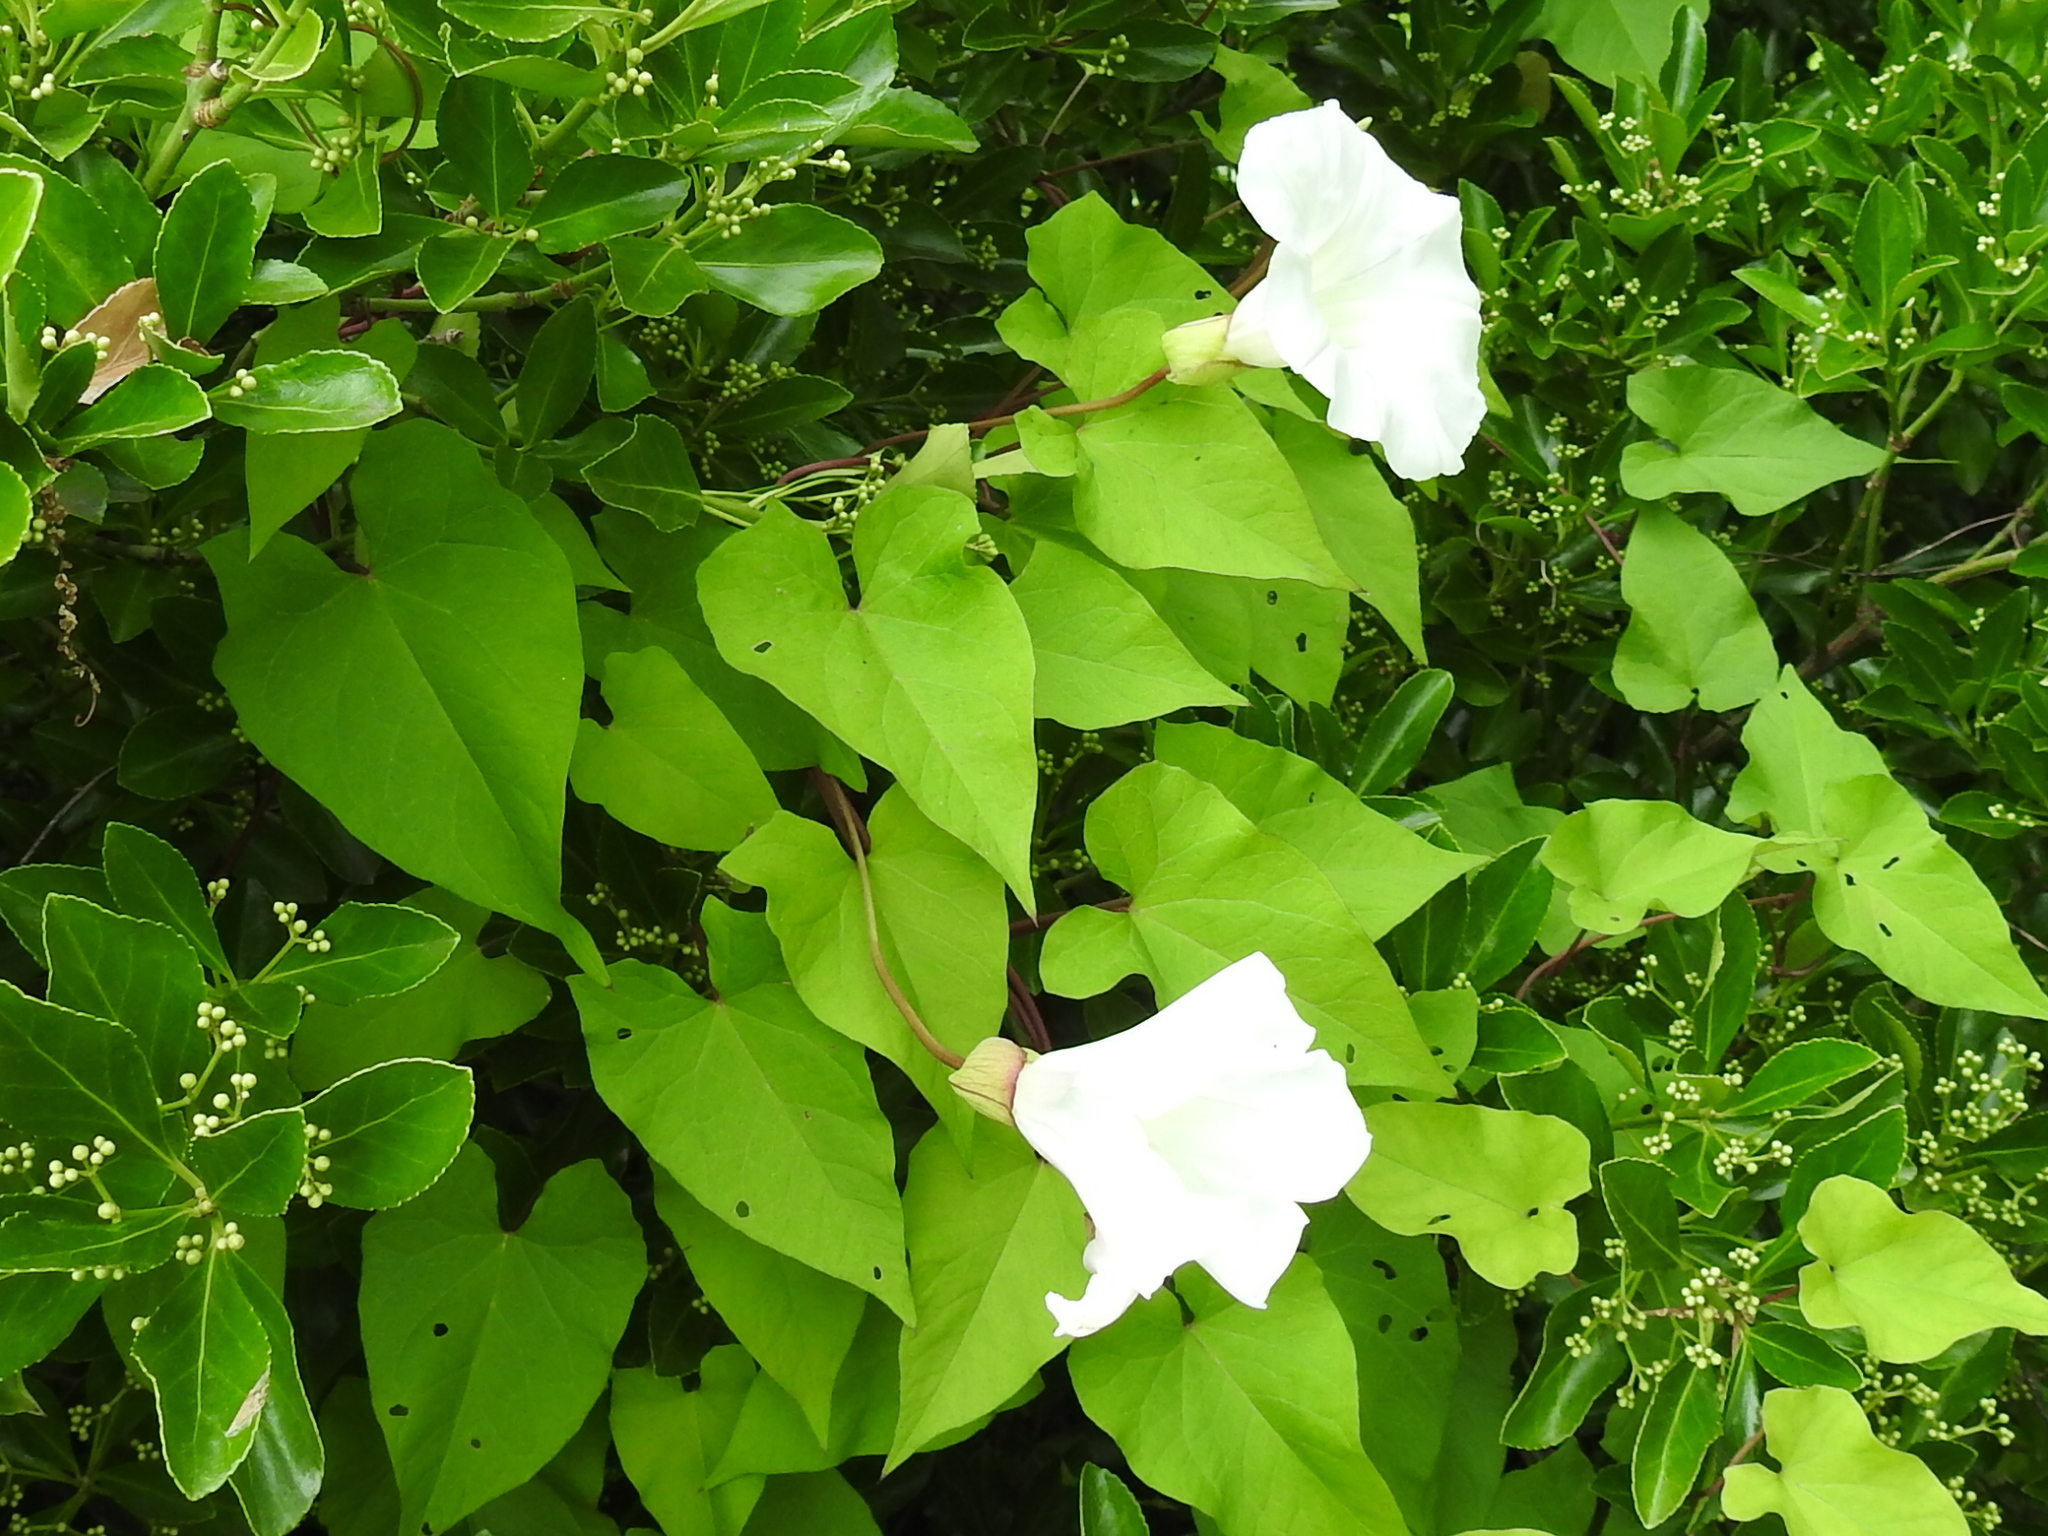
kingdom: Plantae
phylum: Tracheophyta
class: Magnoliopsida
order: Solanales
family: Convolvulaceae
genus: Calystegia
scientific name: Calystegia silvatica
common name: Large bindweed
